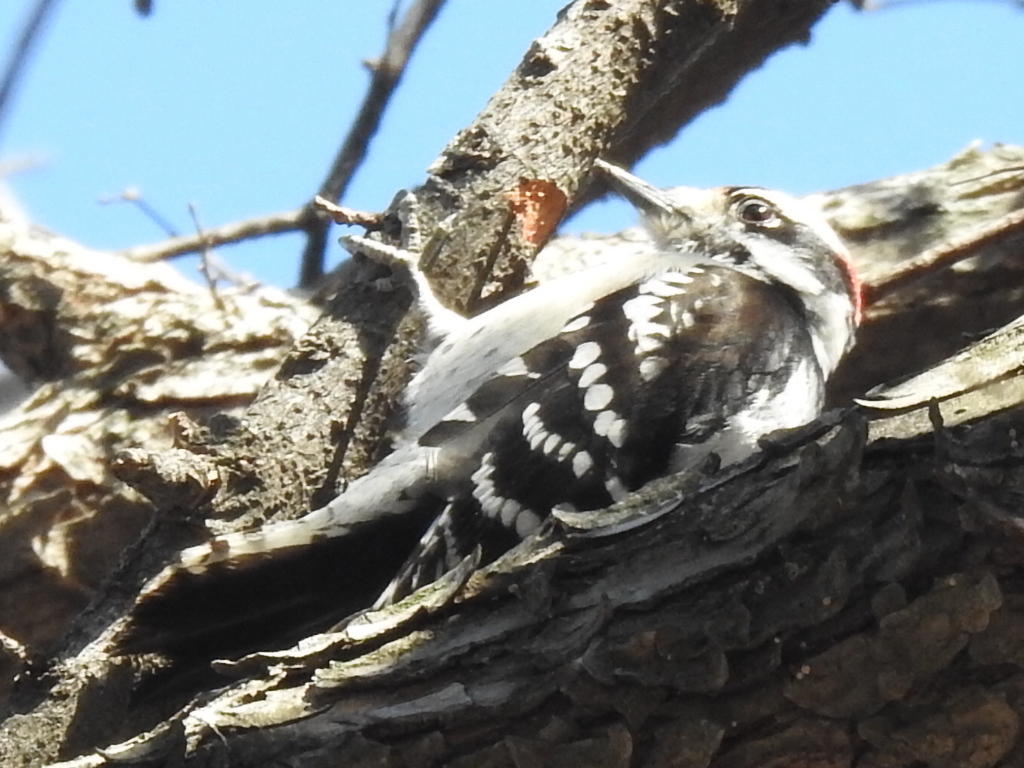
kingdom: Animalia
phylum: Chordata
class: Aves
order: Piciformes
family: Picidae
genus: Dryobates
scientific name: Dryobates pubescens
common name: Downy woodpecker
